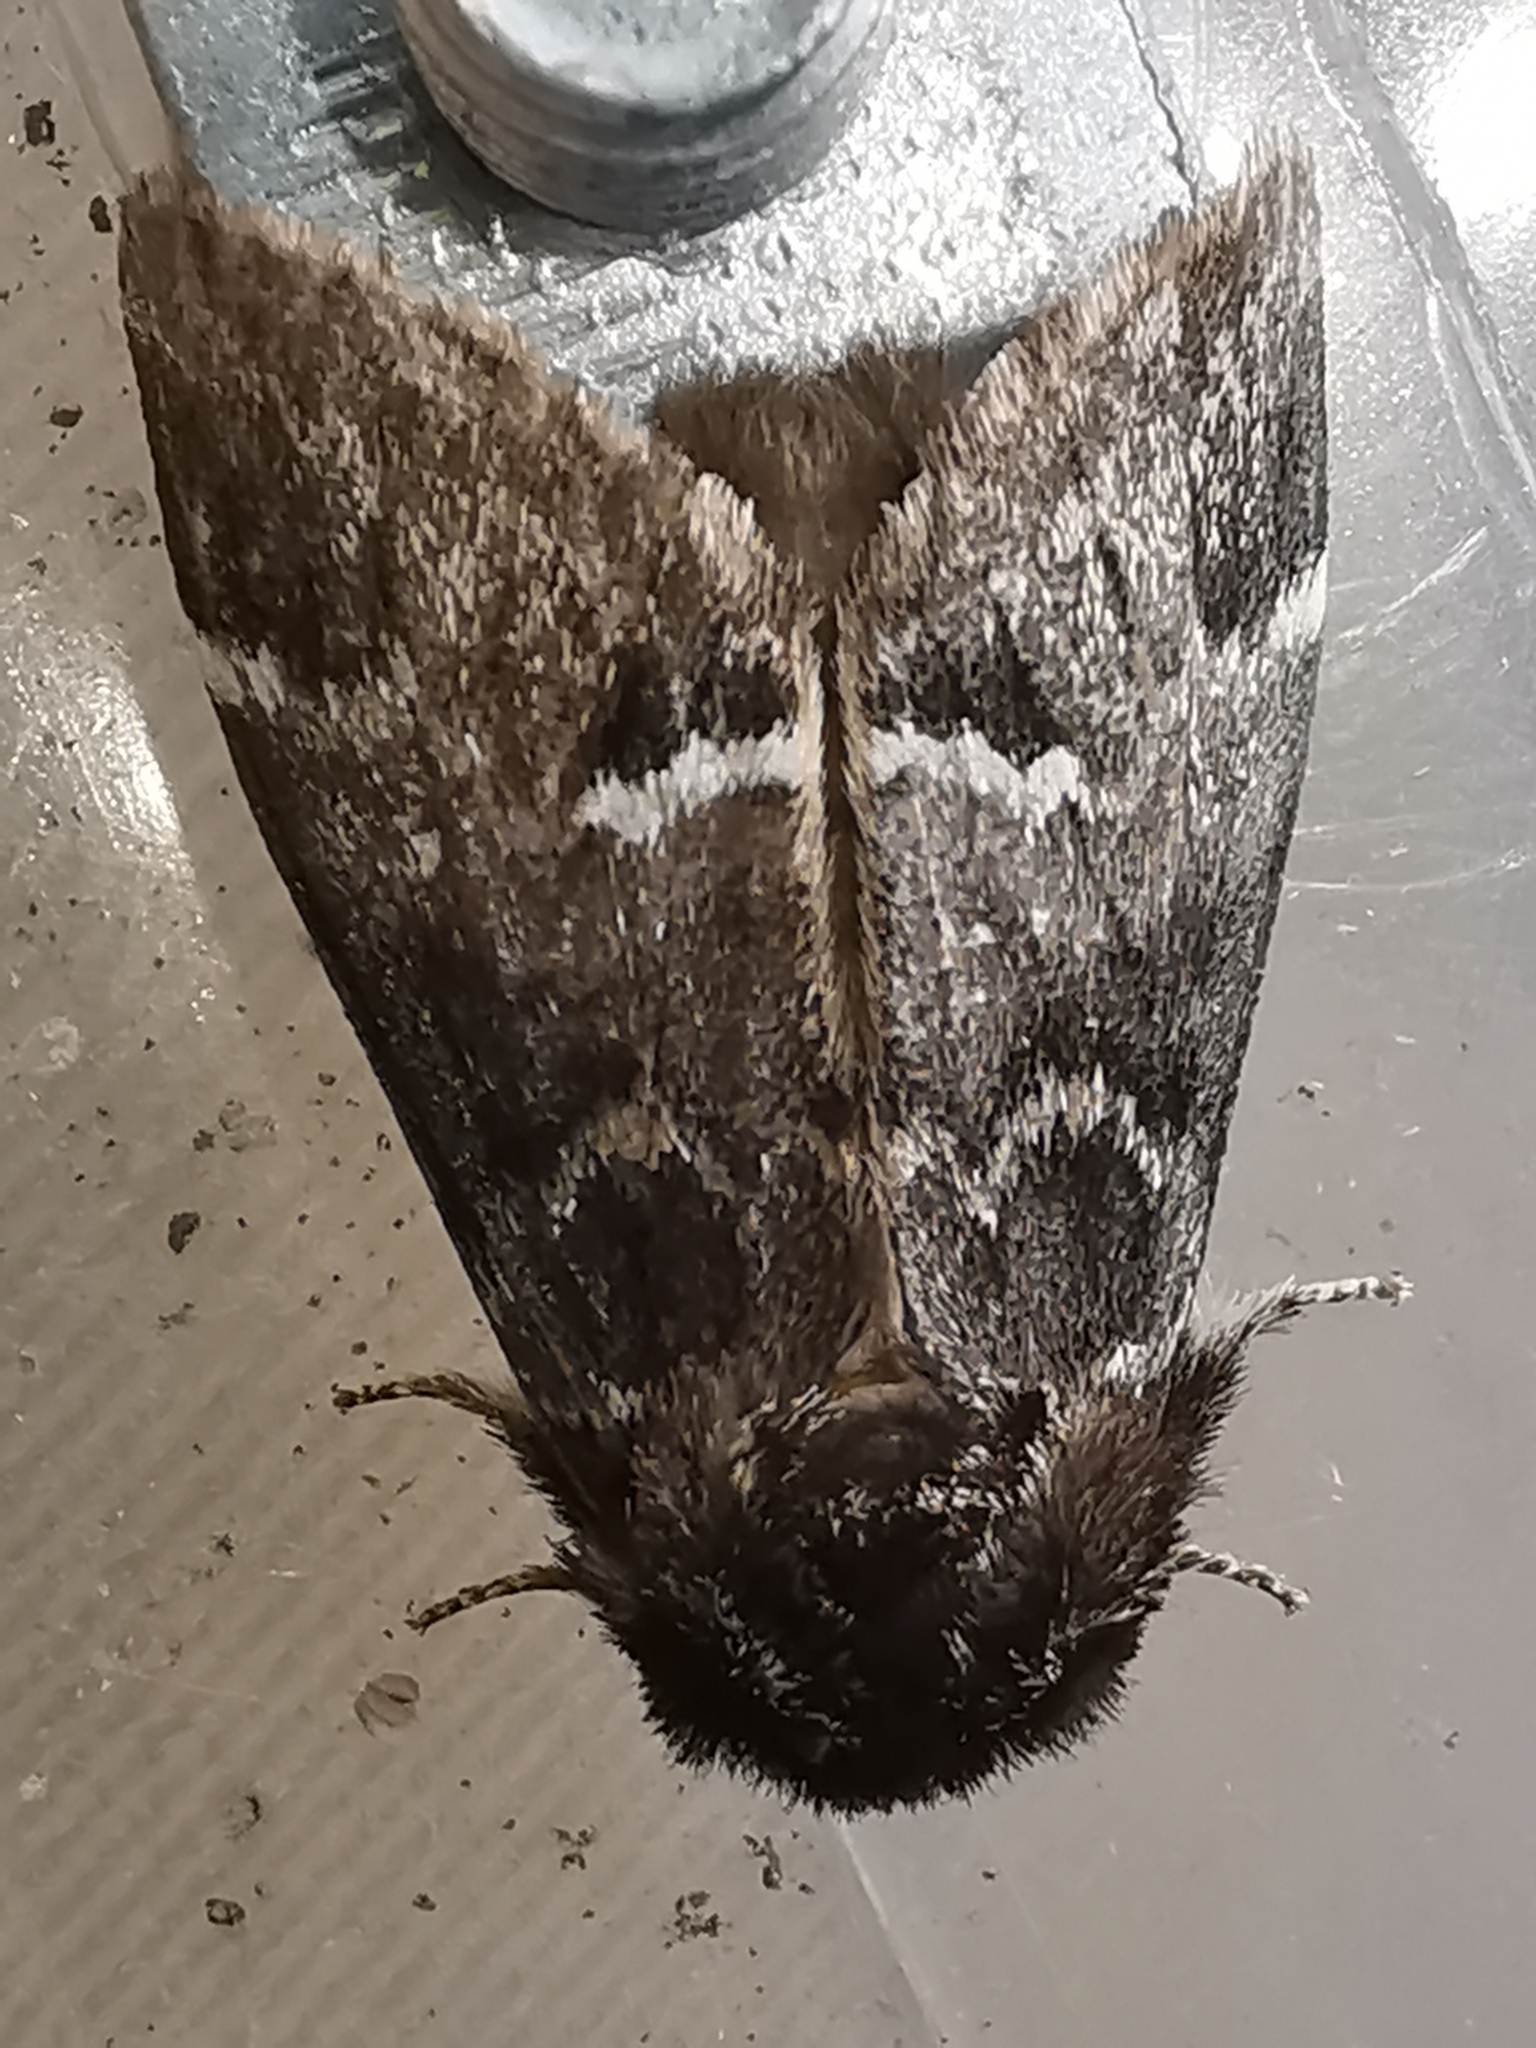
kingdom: Animalia
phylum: Arthropoda
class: Insecta
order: Lepidoptera
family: Notodontidae
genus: Drymonia
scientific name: Drymonia dodonaea
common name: Marbled brown
